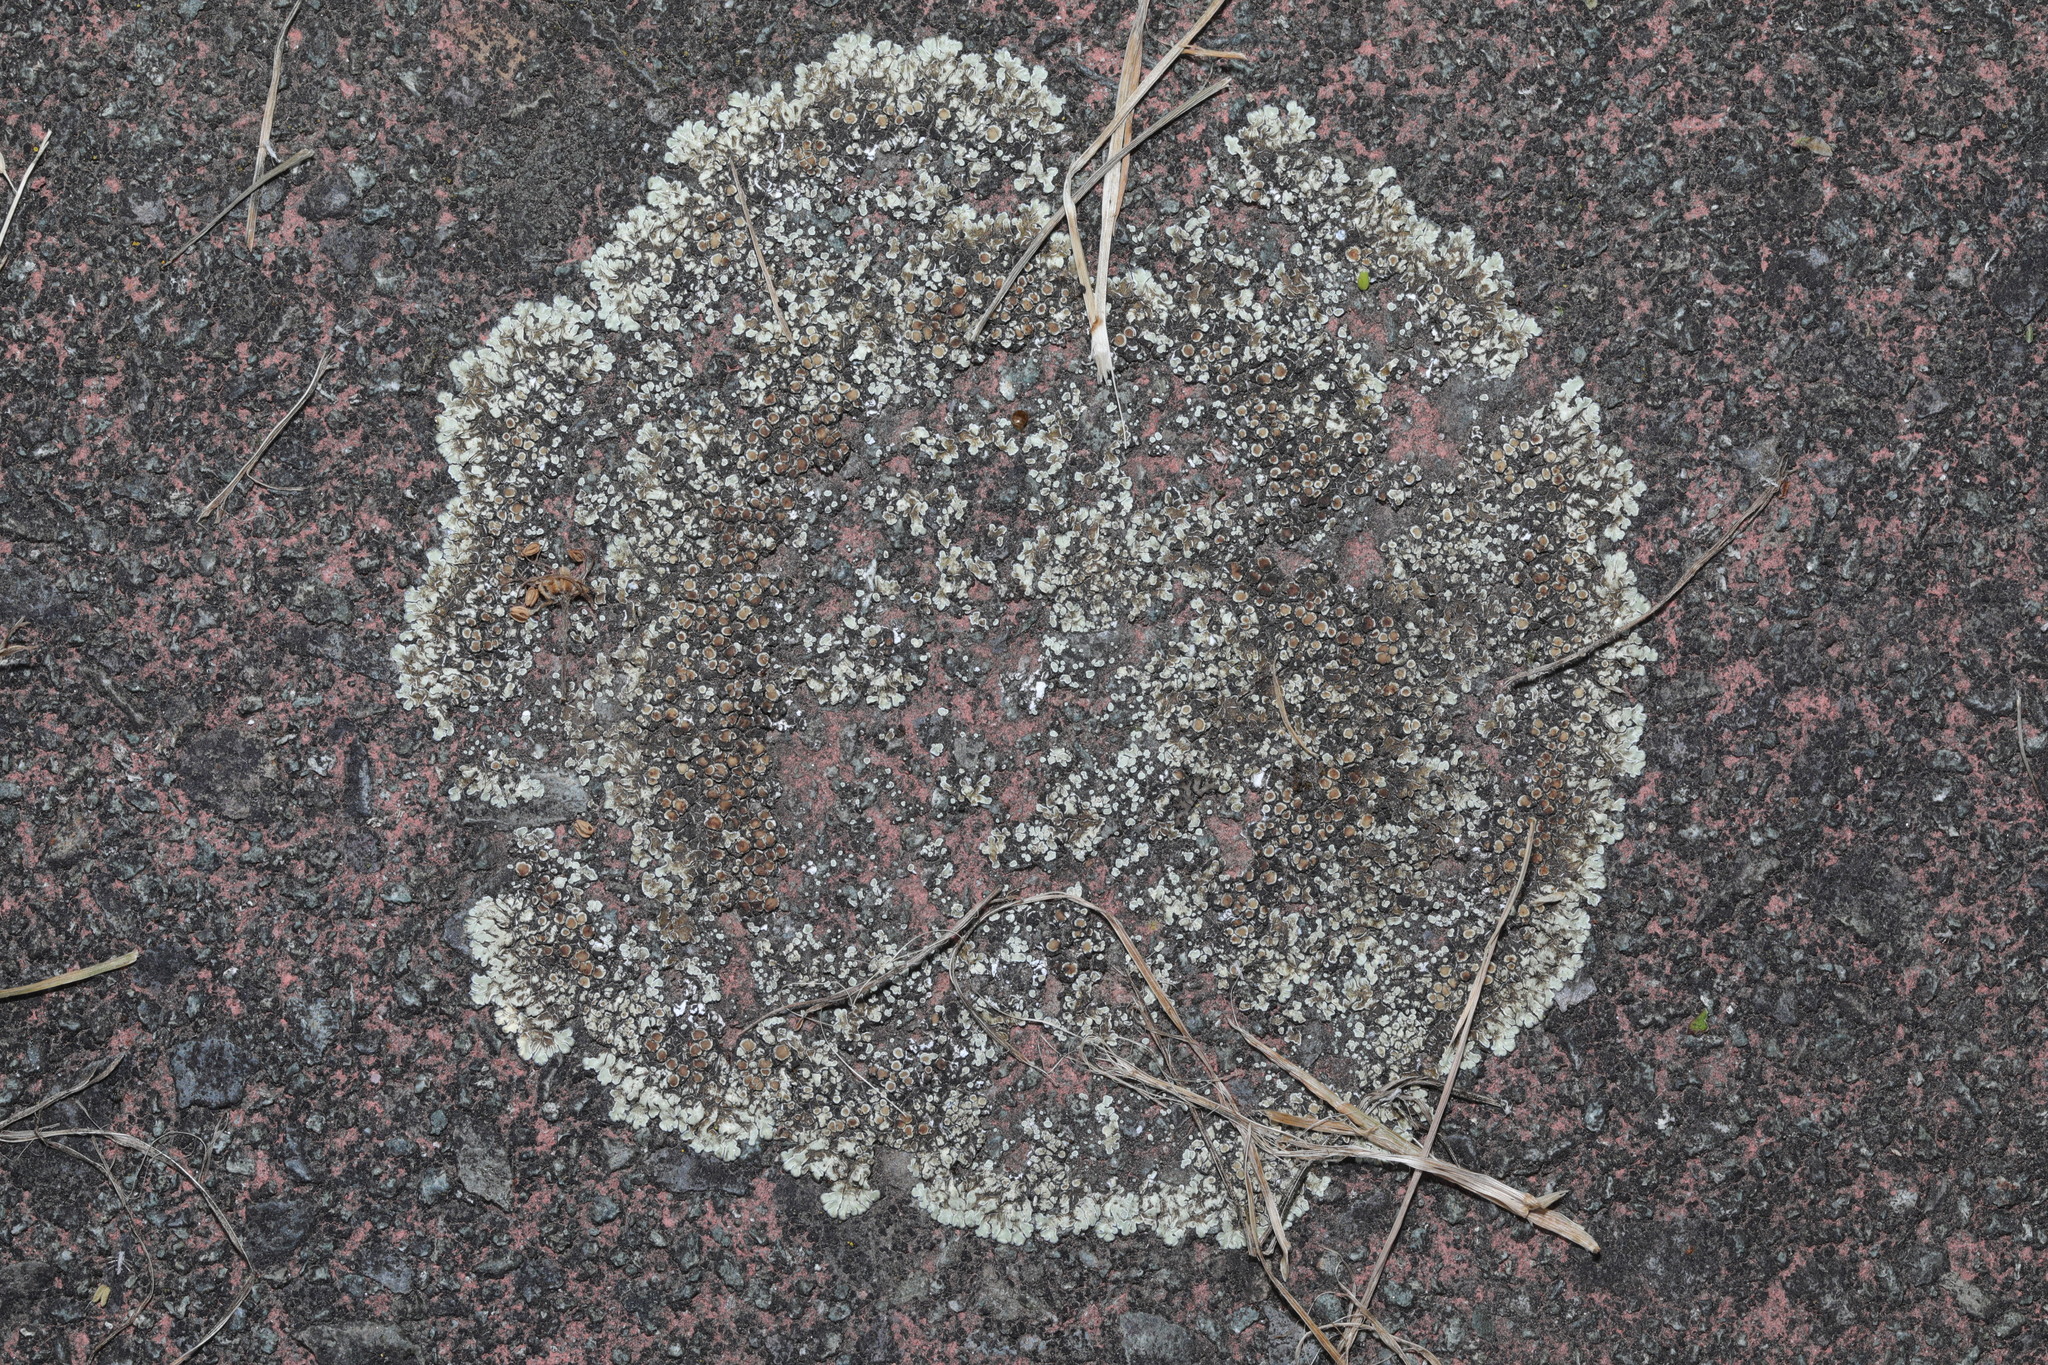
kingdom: Fungi
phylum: Ascomycota
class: Lecanoromycetes
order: Lecanorales
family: Lecanoraceae
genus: Protoparmeliopsis
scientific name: Protoparmeliopsis muralis
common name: Stonewall rim lichen
